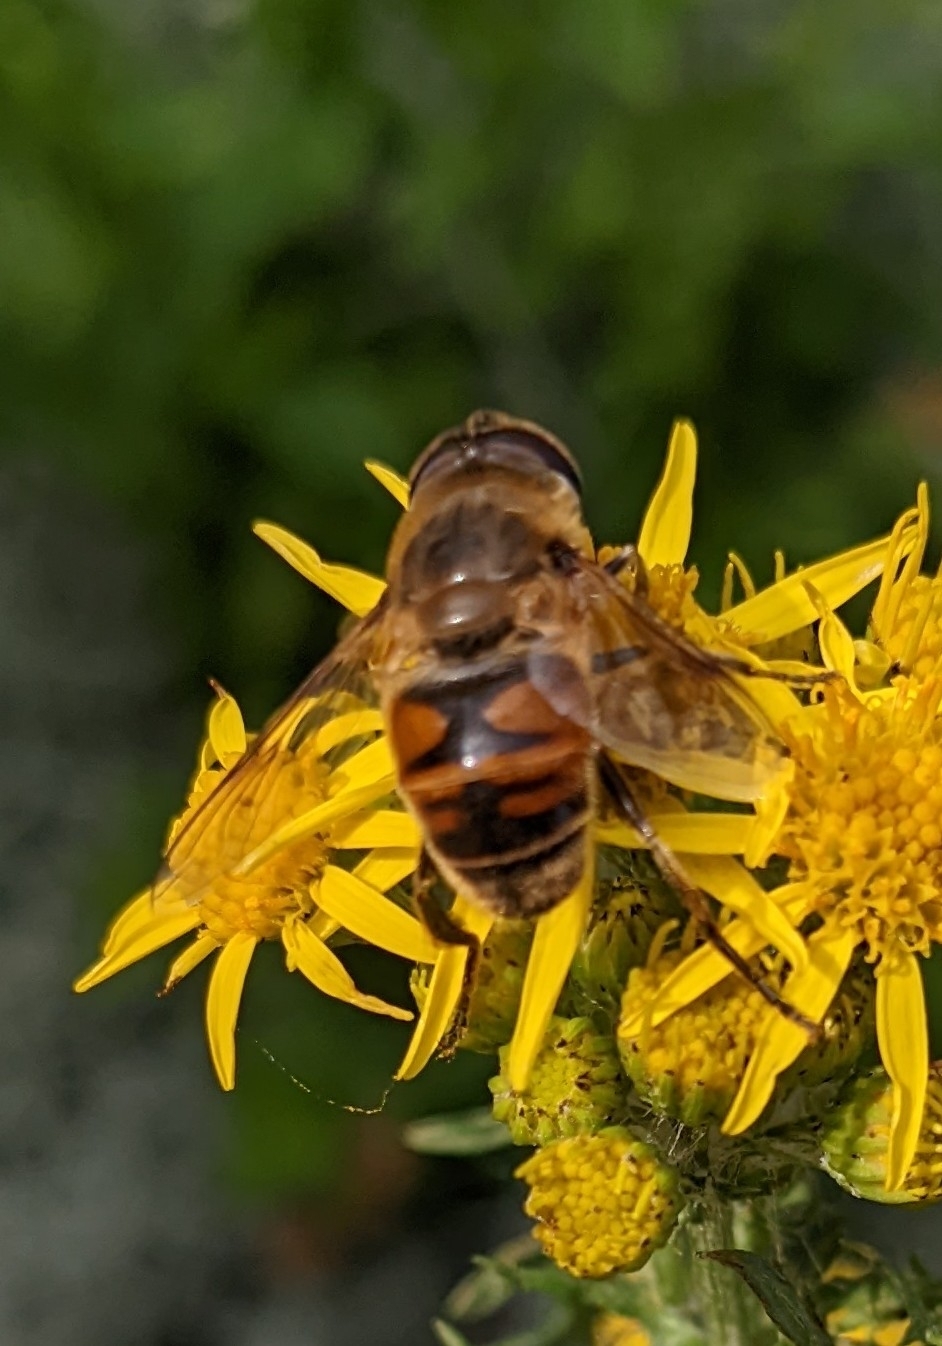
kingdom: Animalia
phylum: Arthropoda
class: Insecta
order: Diptera
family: Syrphidae
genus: Eristalis
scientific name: Eristalis tenax
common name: Drone fly
